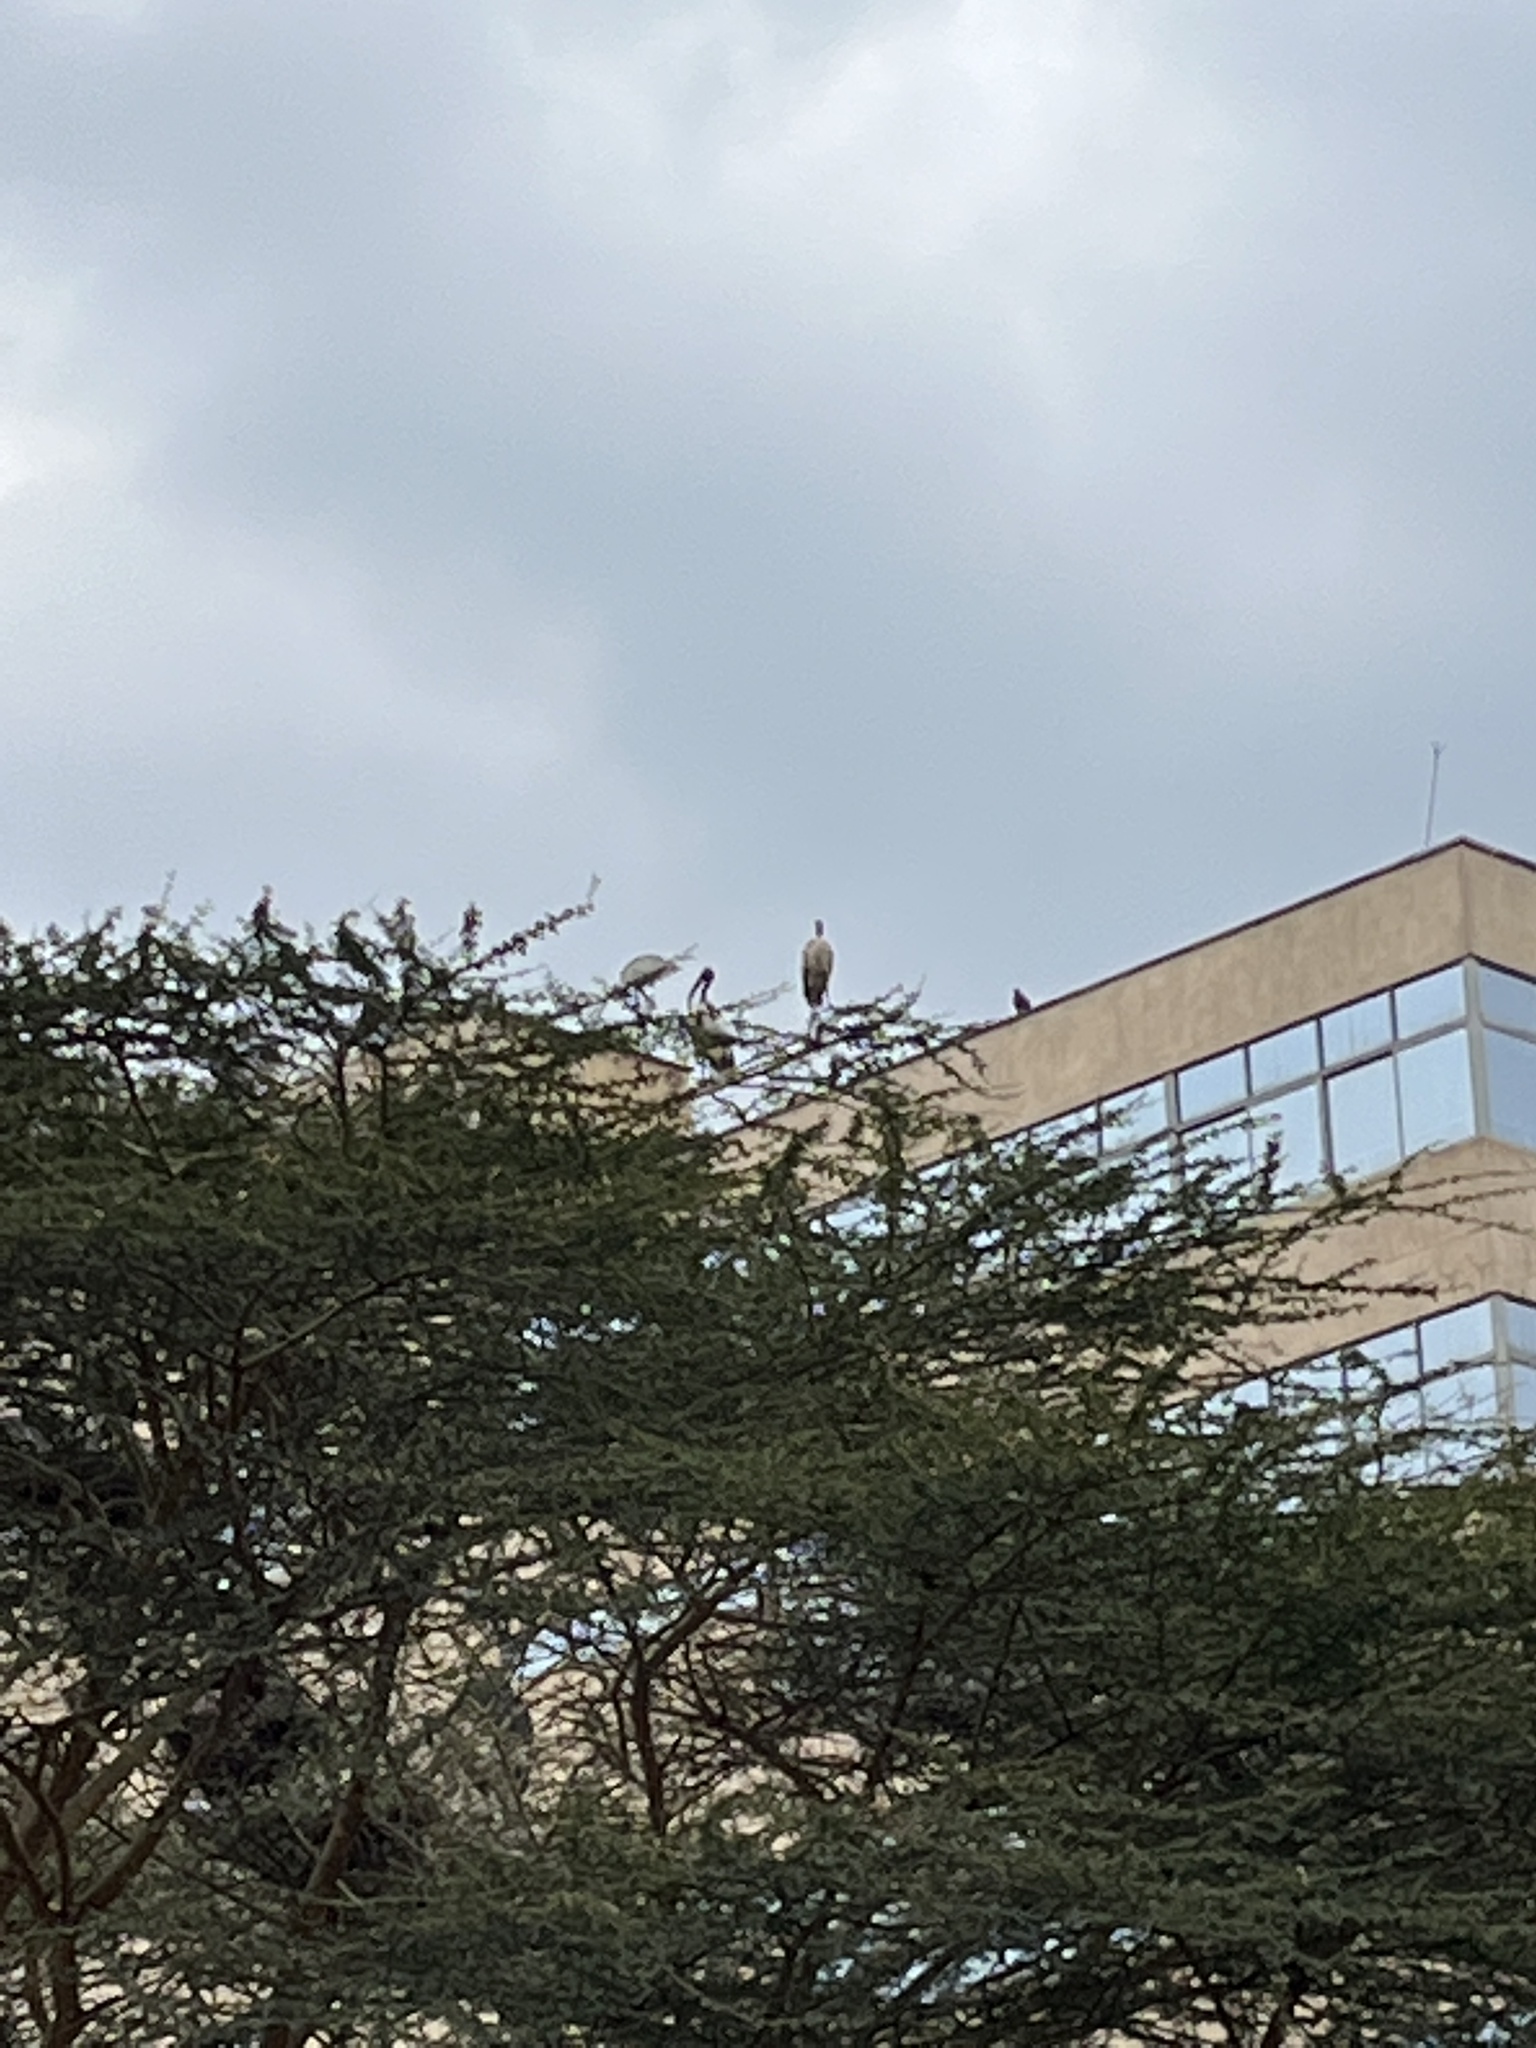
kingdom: Animalia
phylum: Chordata
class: Aves
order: Pelecaniformes
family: Threskiornithidae
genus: Threskiornis
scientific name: Threskiornis aethiopicus
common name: Sacred ibis
